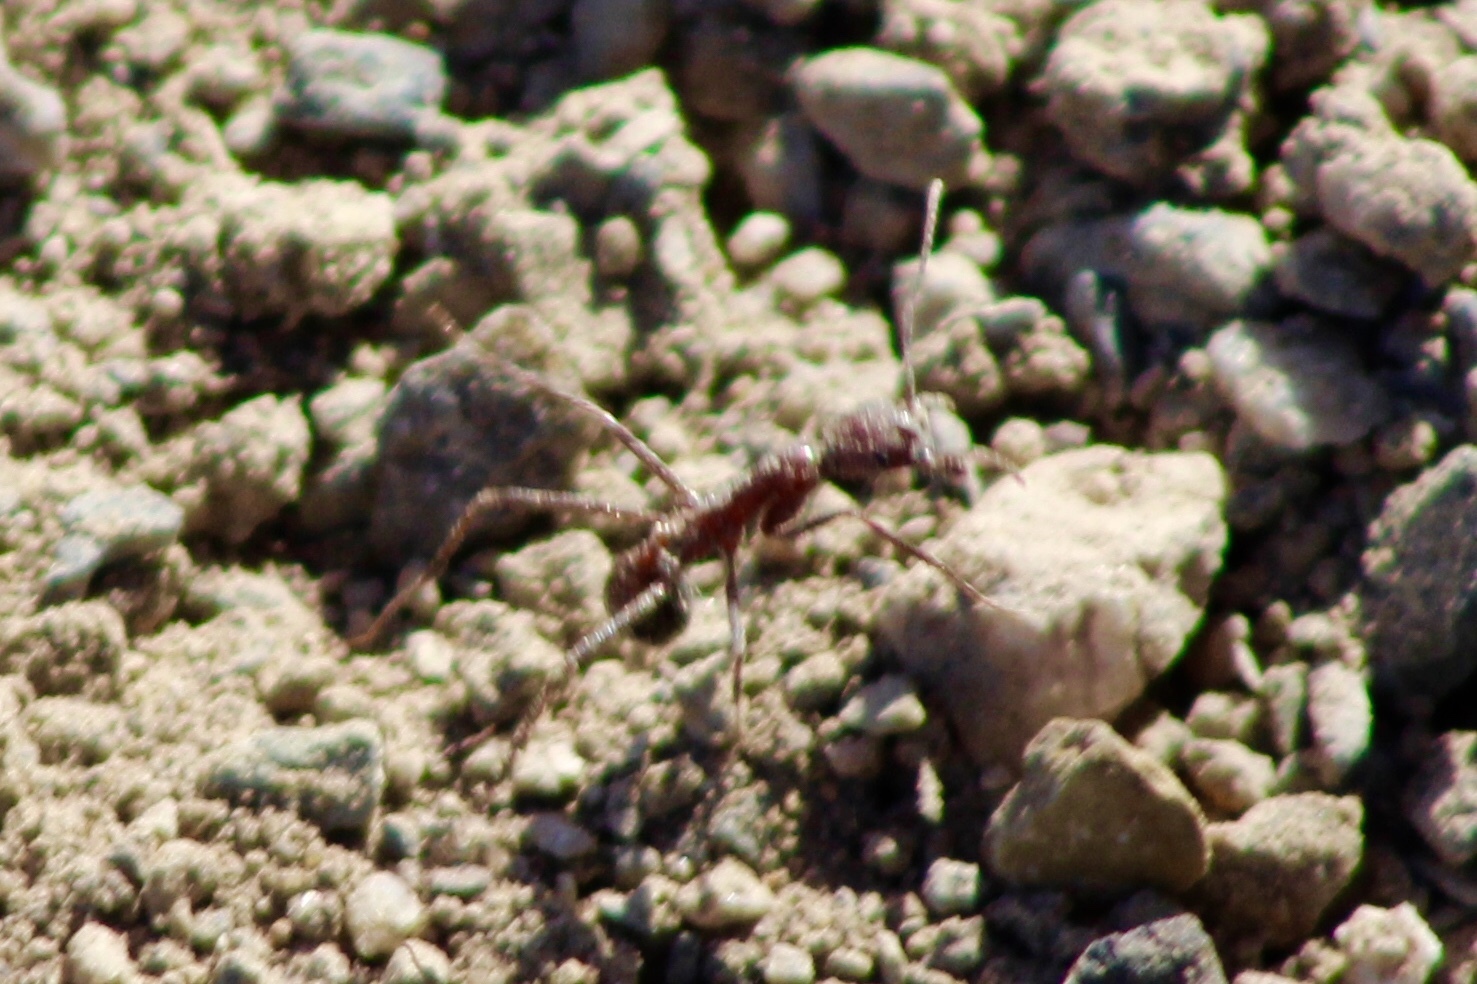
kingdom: Animalia
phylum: Arthropoda
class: Insecta
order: Hymenoptera
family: Formicidae
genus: Novomessor
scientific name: Novomessor cockerelli
